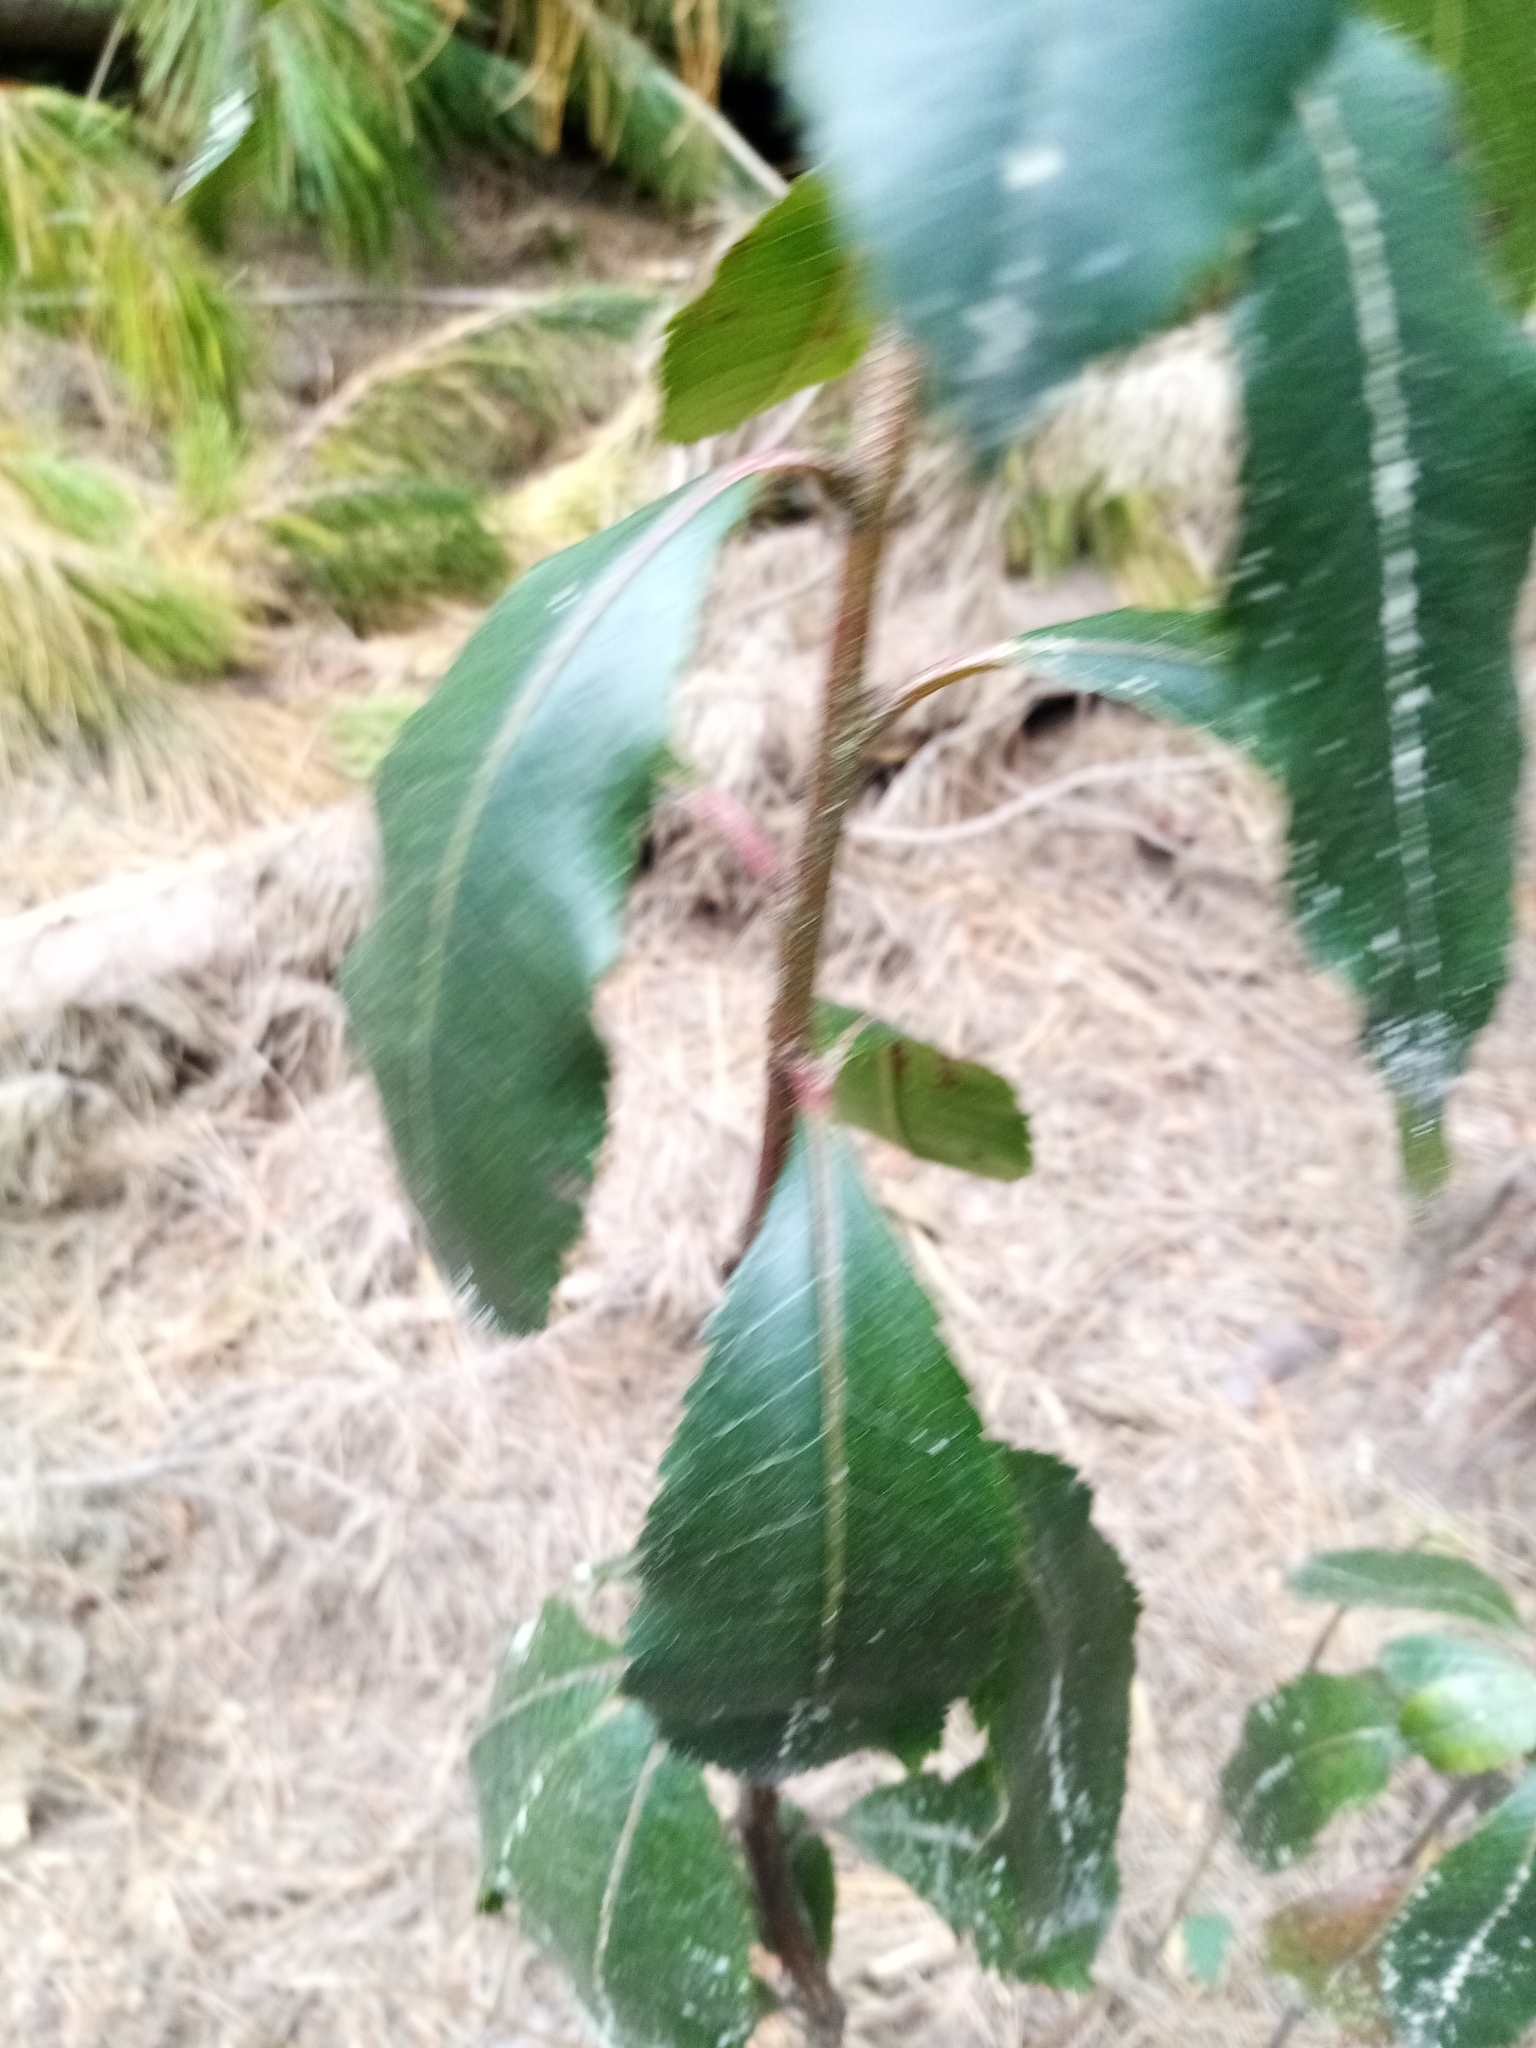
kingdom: Plantae
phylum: Tracheophyta
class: Magnoliopsida
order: Ericales
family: Ericaceae
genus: Arbutus
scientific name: Arbutus unedo
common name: Strawberry-tree
